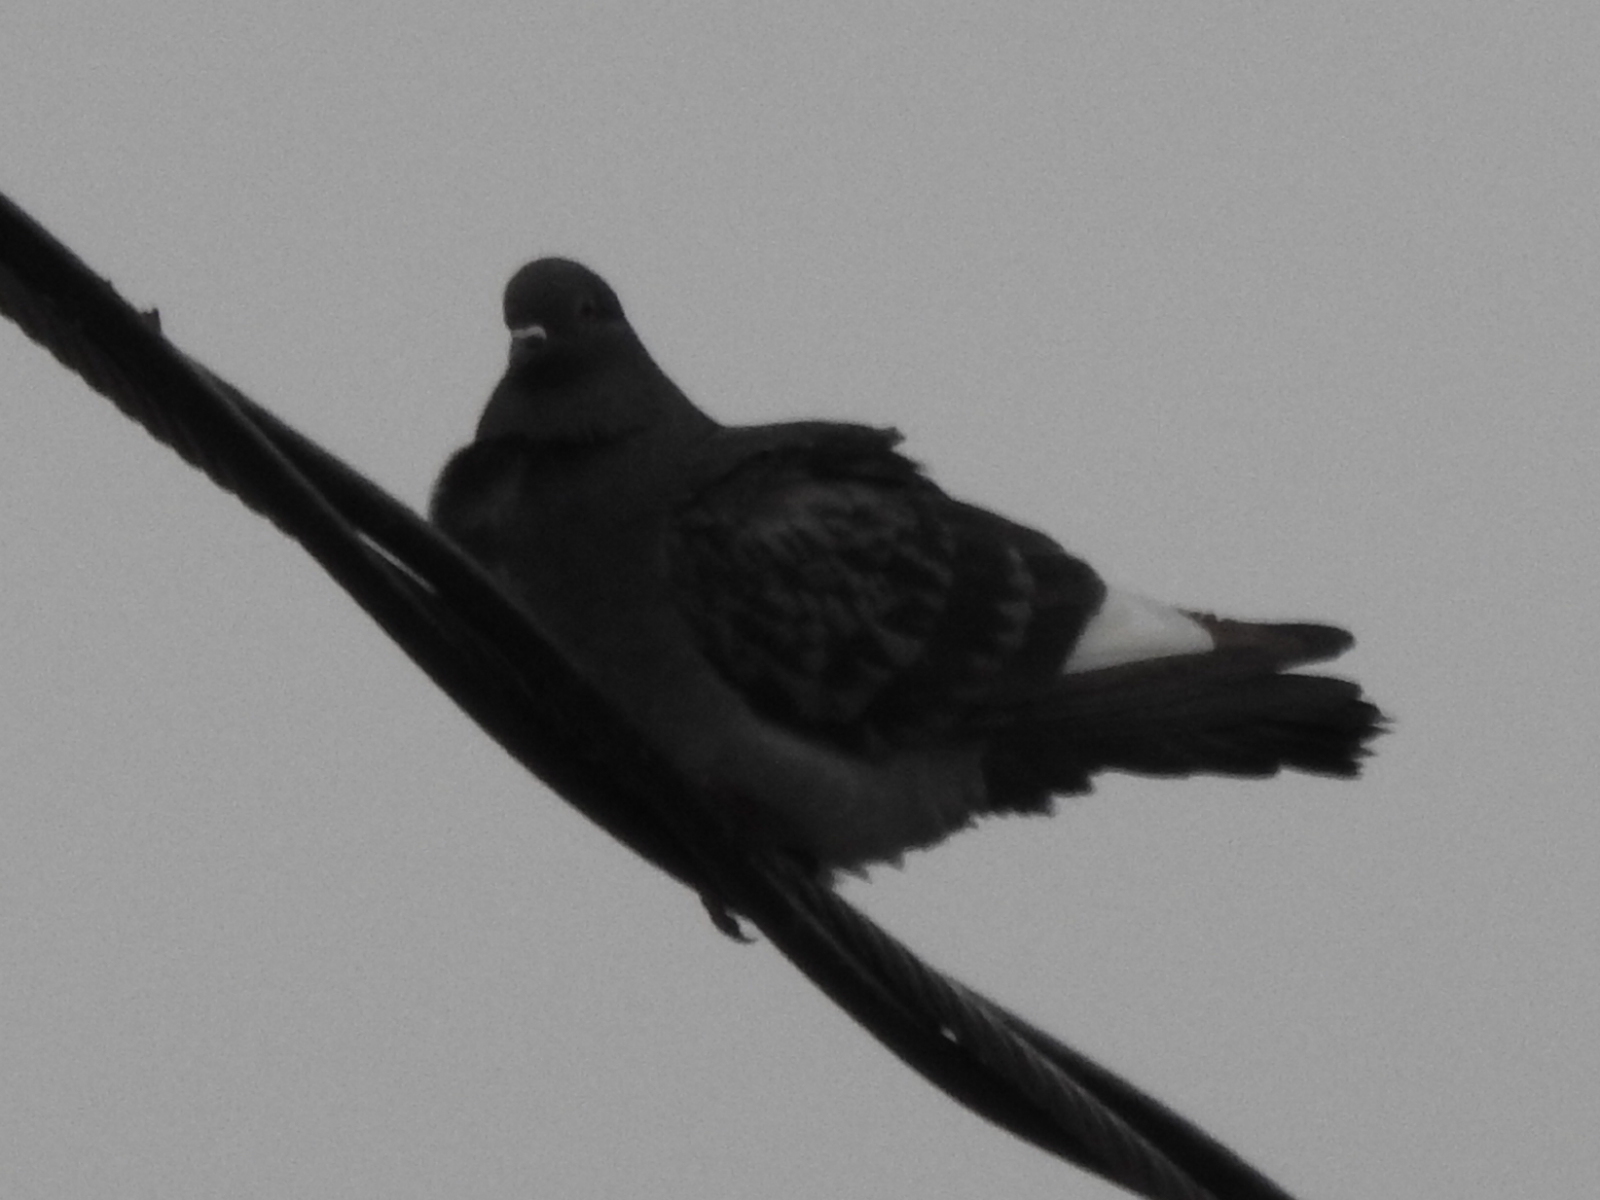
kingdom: Animalia
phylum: Chordata
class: Aves
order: Columbiformes
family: Columbidae
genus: Columba
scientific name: Columba livia
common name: Rock pigeon
